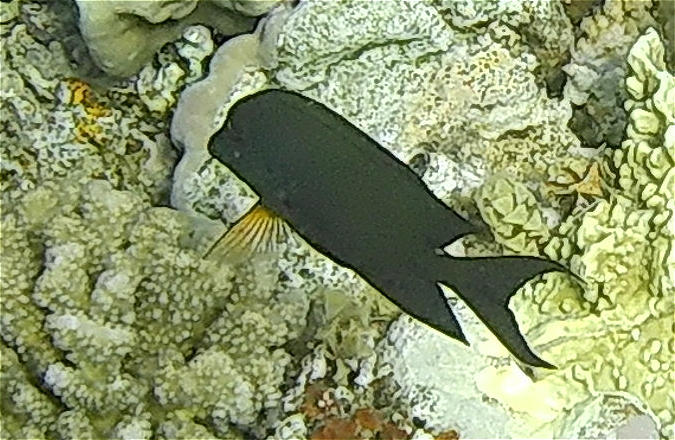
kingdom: Animalia
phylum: Chordata
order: Perciformes
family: Acanthuridae
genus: Ctenochaetus
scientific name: Ctenochaetus striatus
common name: Bristle-toothed surgeonfish
